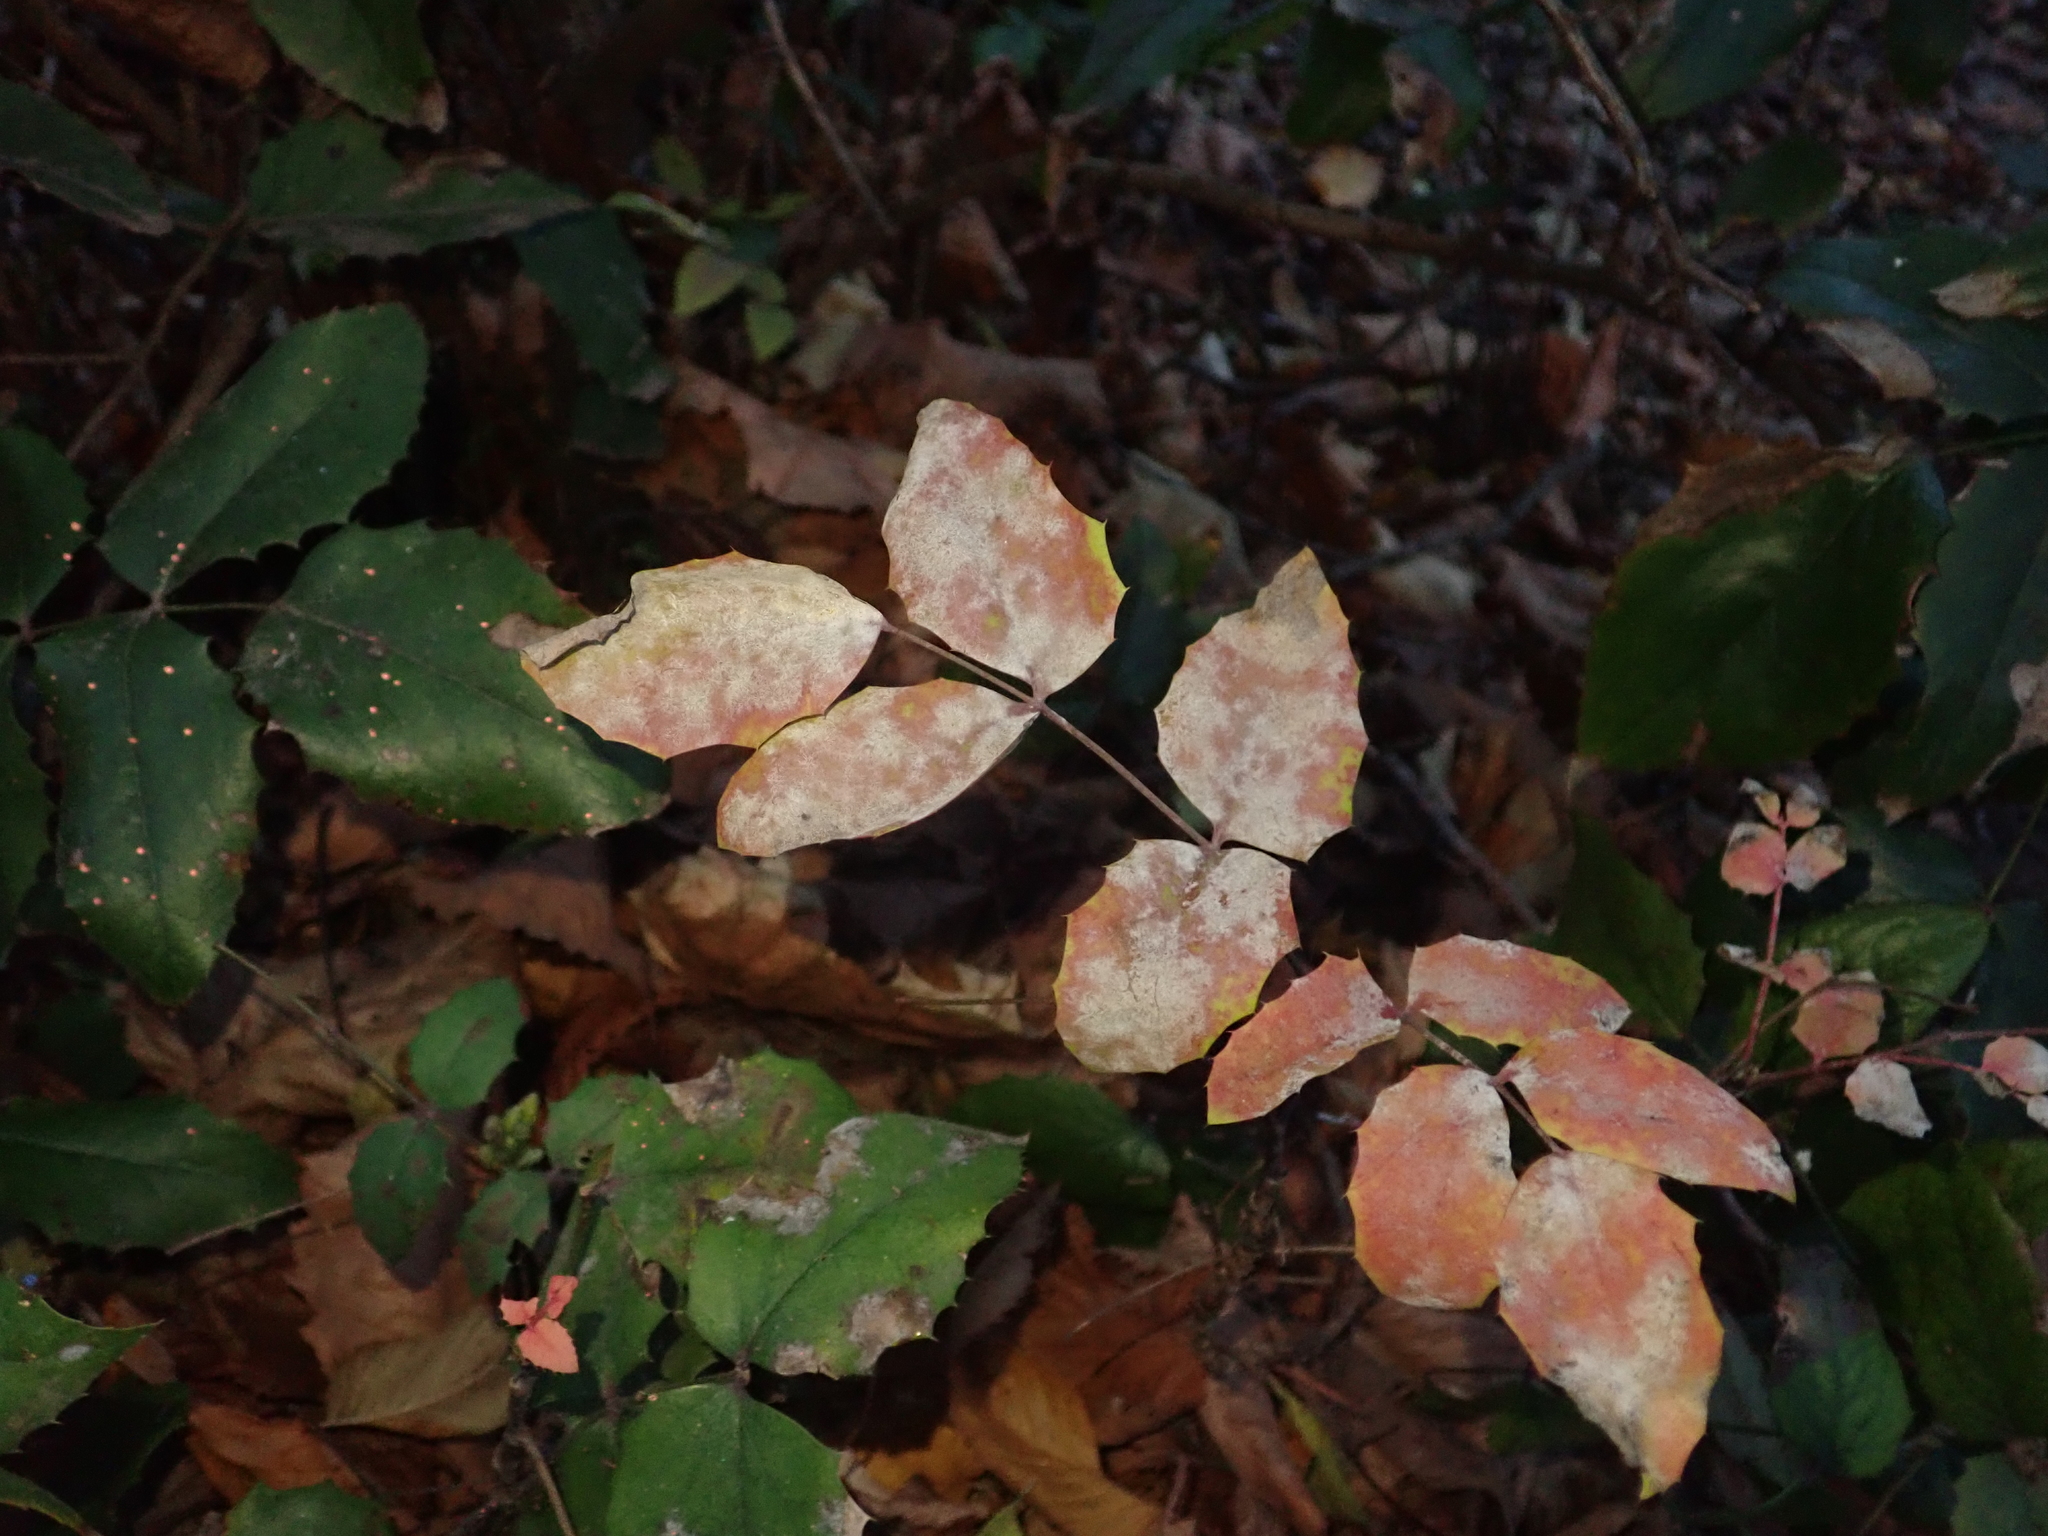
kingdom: Plantae
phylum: Tracheophyta
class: Magnoliopsida
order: Ranunculales
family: Berberidaceae
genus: Mahonia
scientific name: Mahonia aquifolium
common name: Oregon-grape
